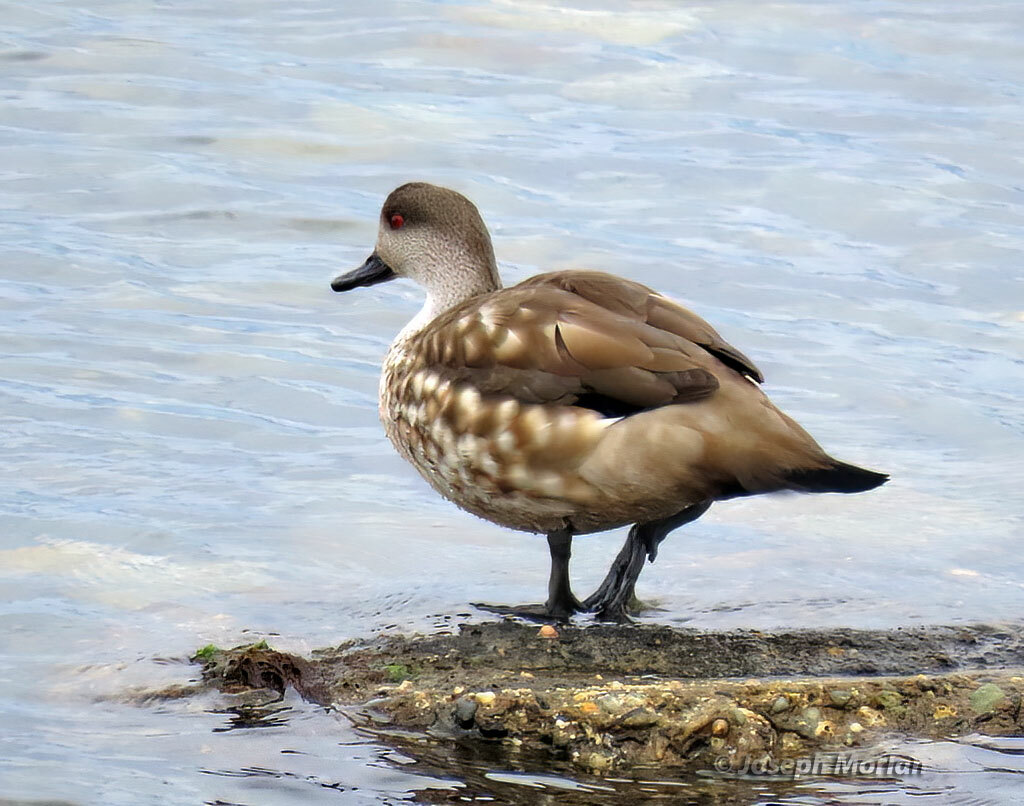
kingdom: Animalia
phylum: Chordata
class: Aves
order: Anseriformes
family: Anatidae
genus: Lophonetta
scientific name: Lophonetta specularioides
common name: Crested duck
